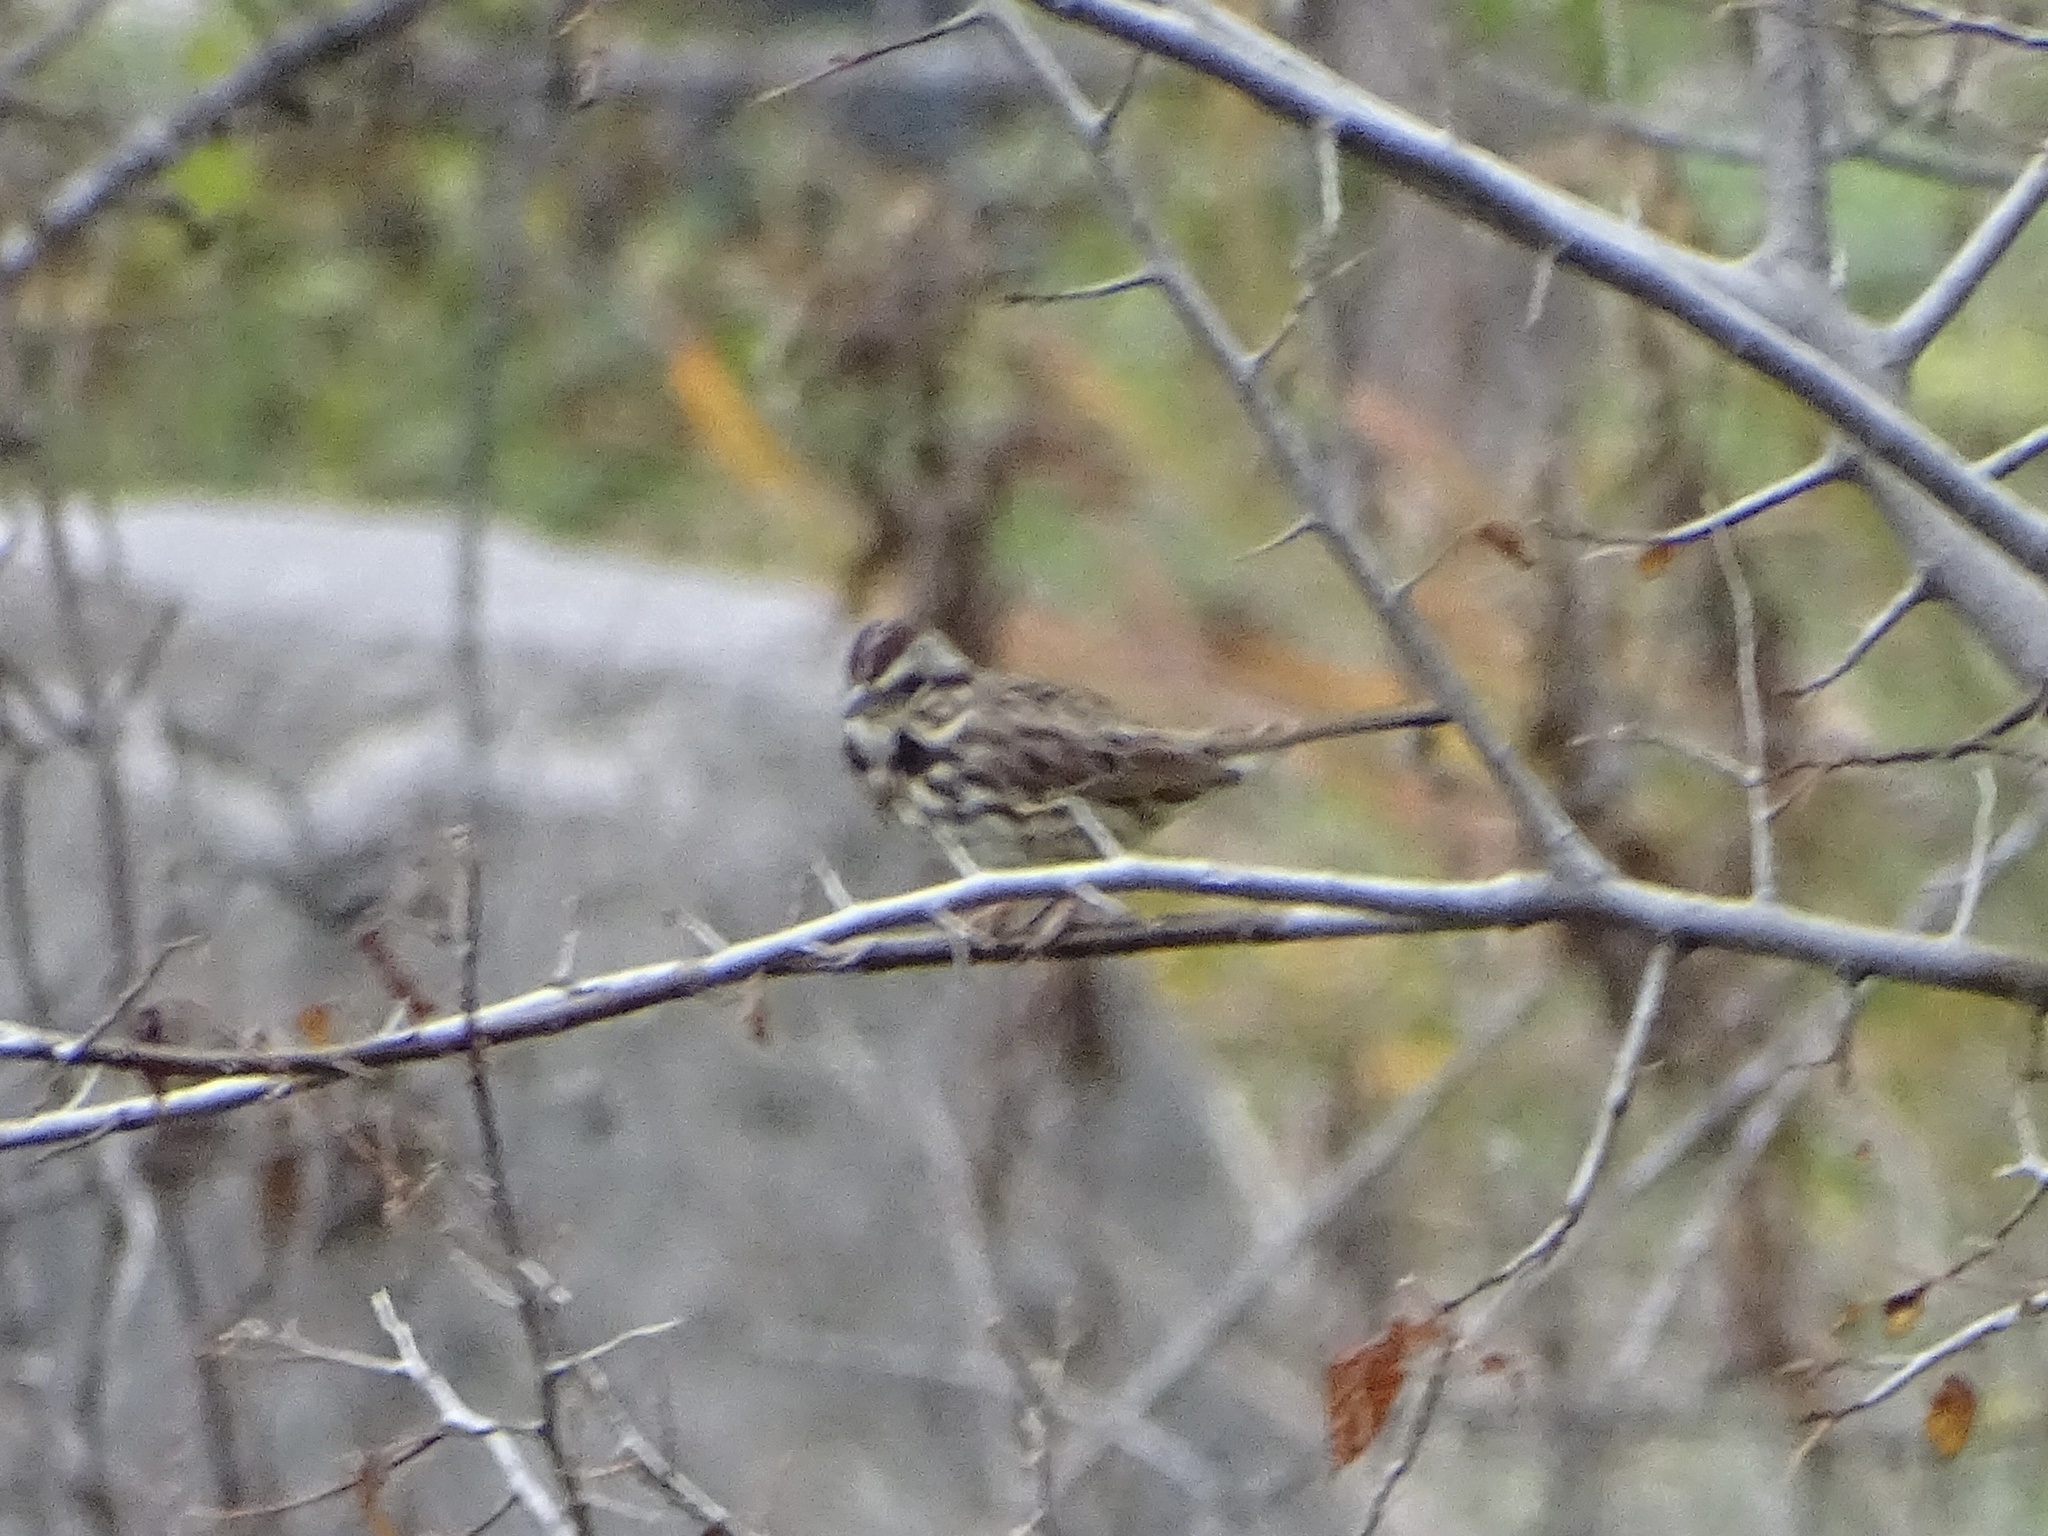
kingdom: Animalia
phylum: Chordata
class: Aves
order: Passeriformes
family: Passerellidae
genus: Melospiza
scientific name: Melospiza melodia
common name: Song sparrow
